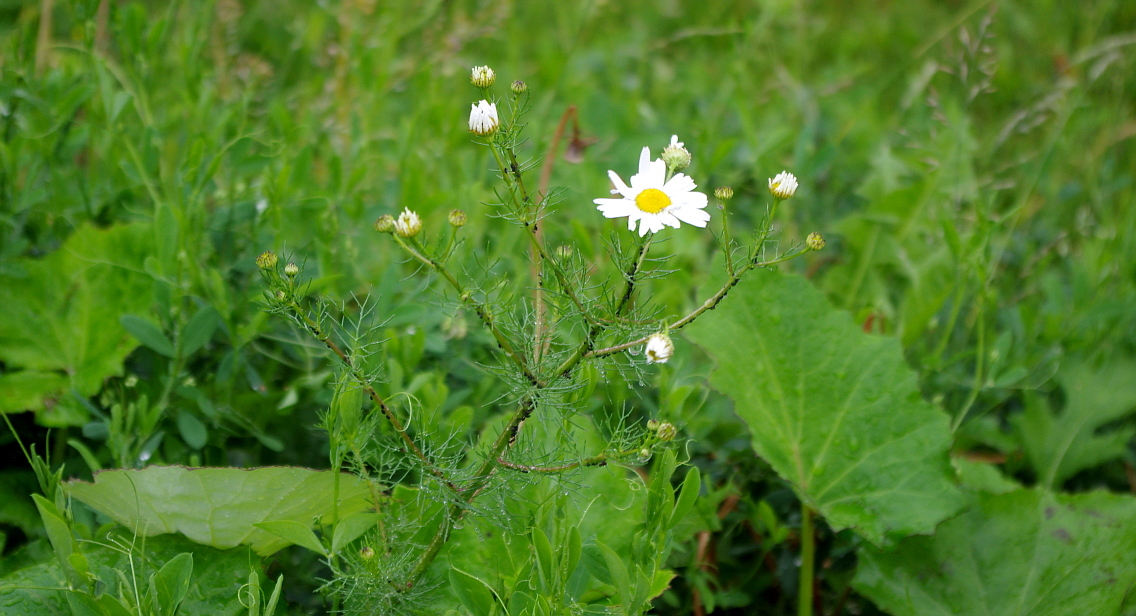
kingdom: Plantae
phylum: Tracheophyta
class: Magnoliopsida
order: Asterales
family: Asteraceae
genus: Tripleurospermum
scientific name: Tripleurospermum inodorum
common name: Scentless mayweed
